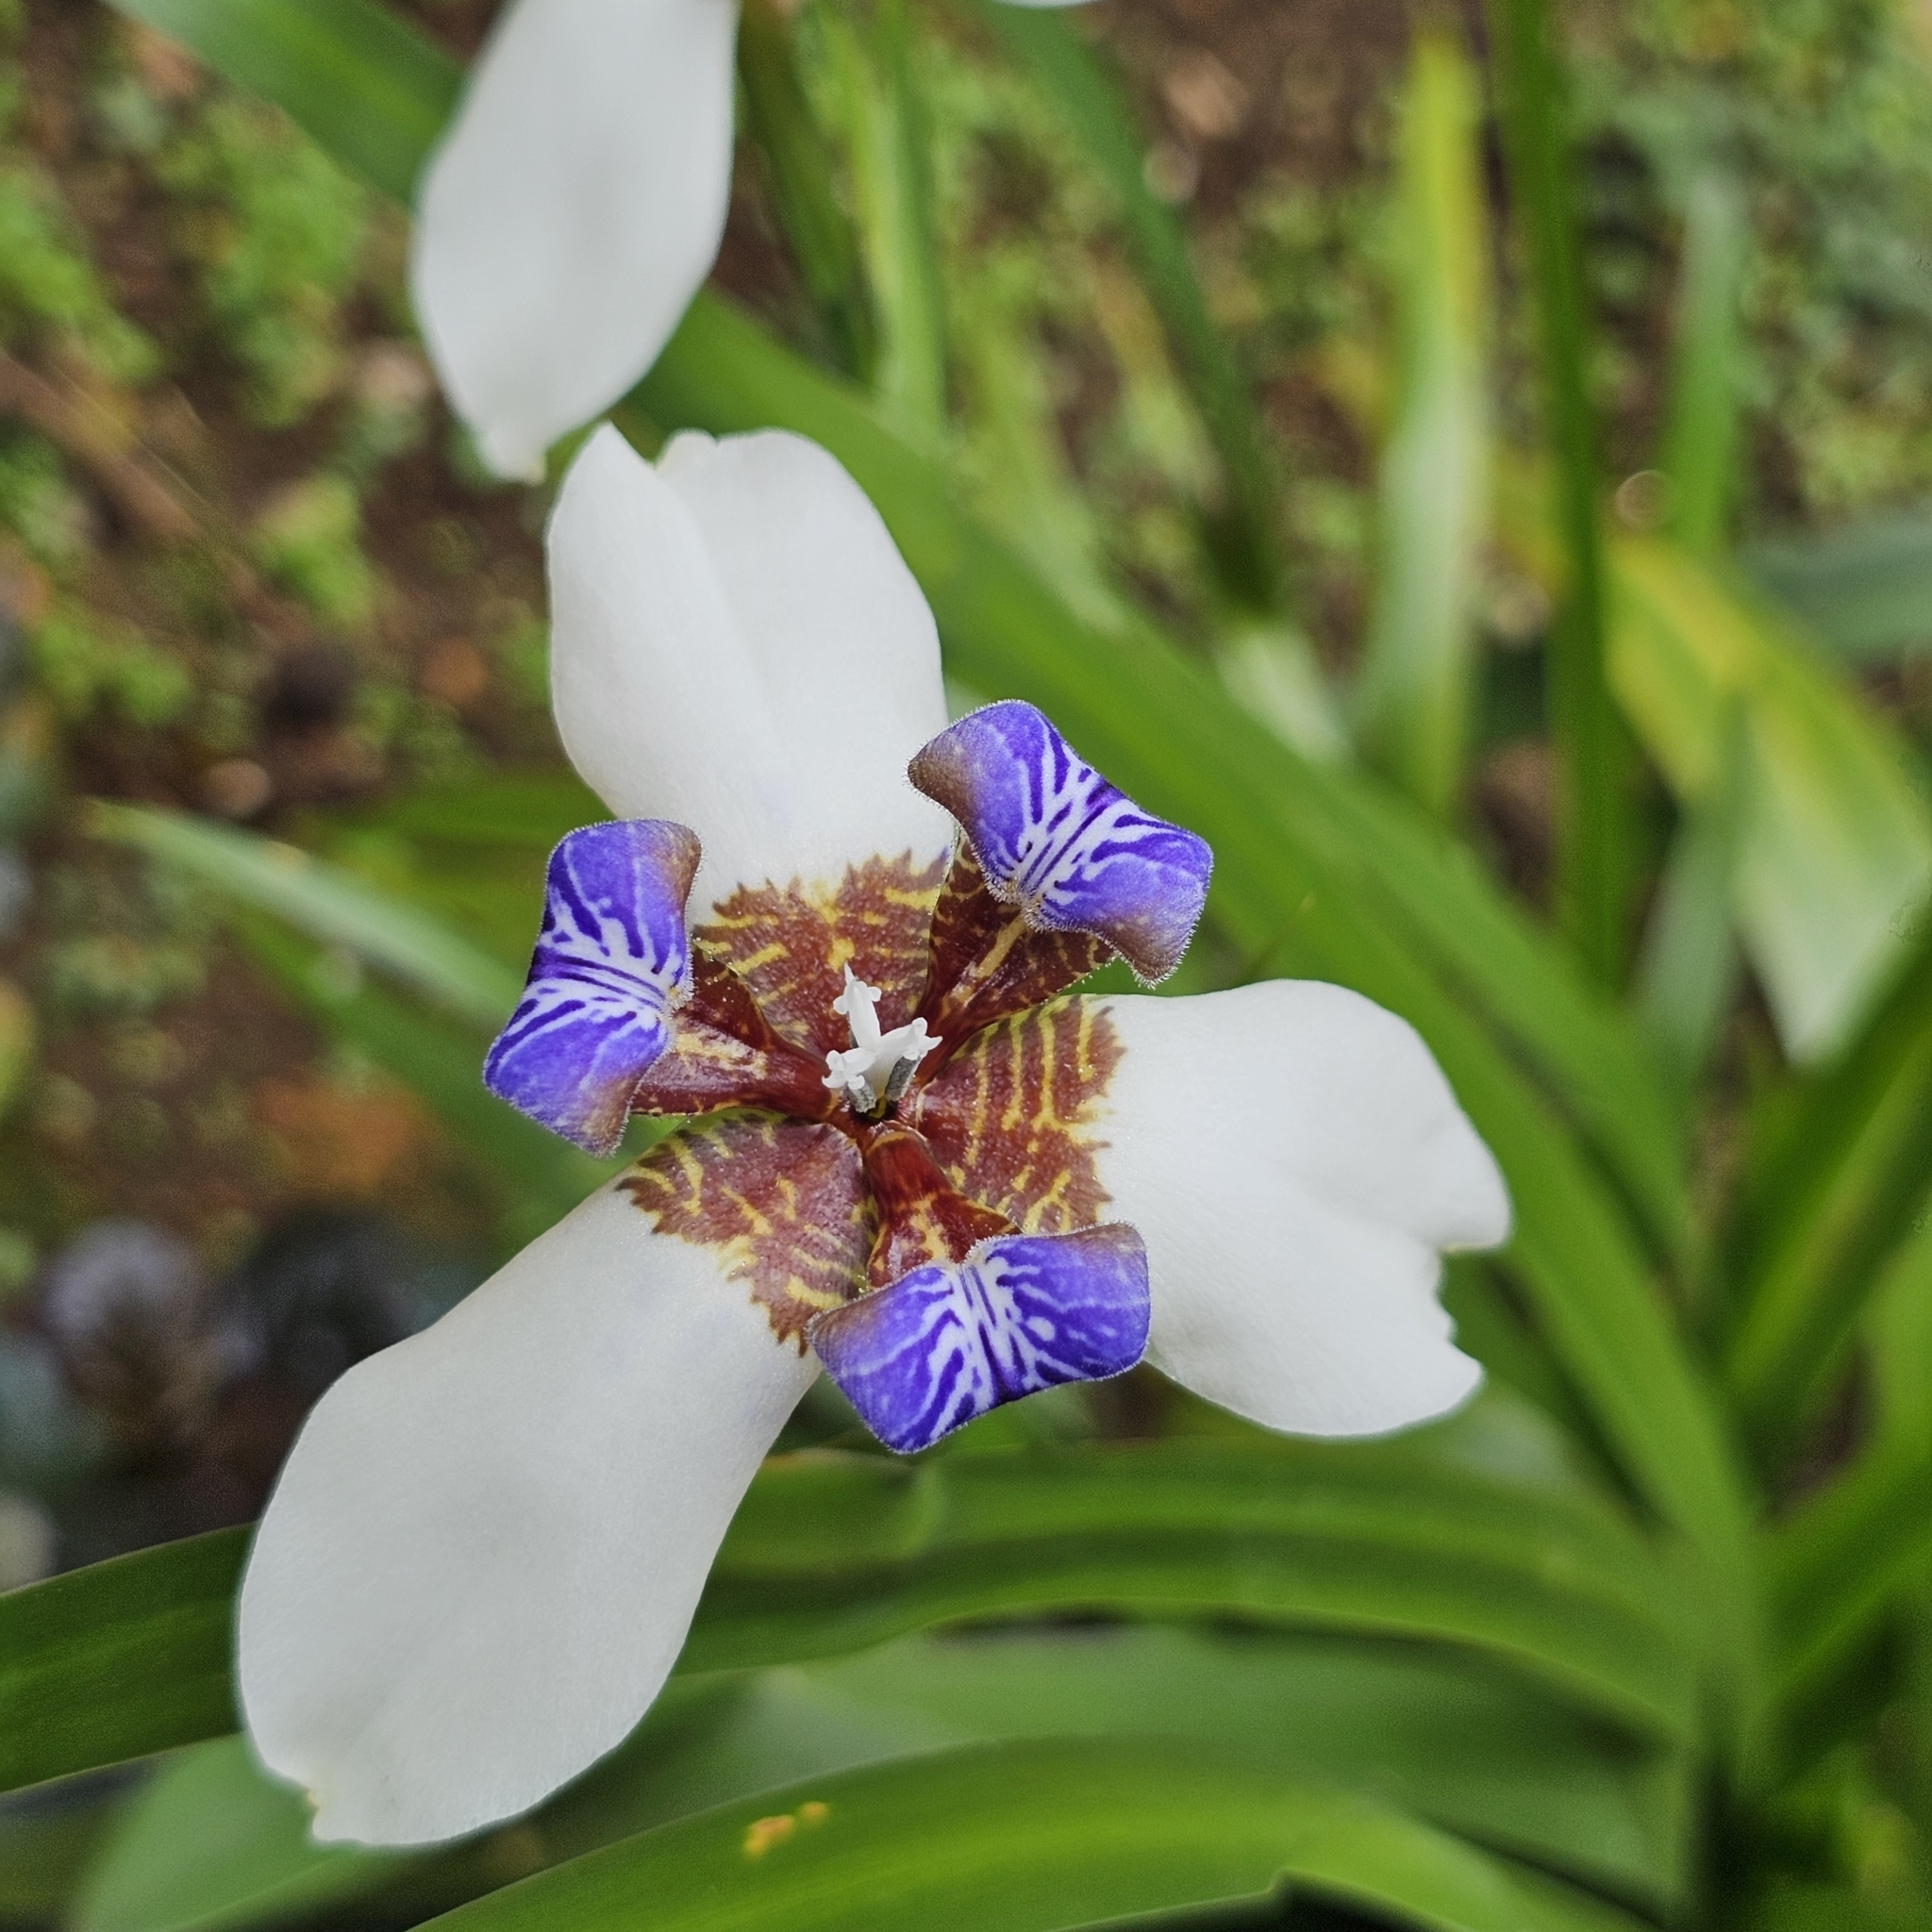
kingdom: Plantae
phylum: Tracheophyta
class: Liliopsida
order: Asparagales
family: Iridaceae
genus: Trimezia
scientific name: Trimezia northiana
